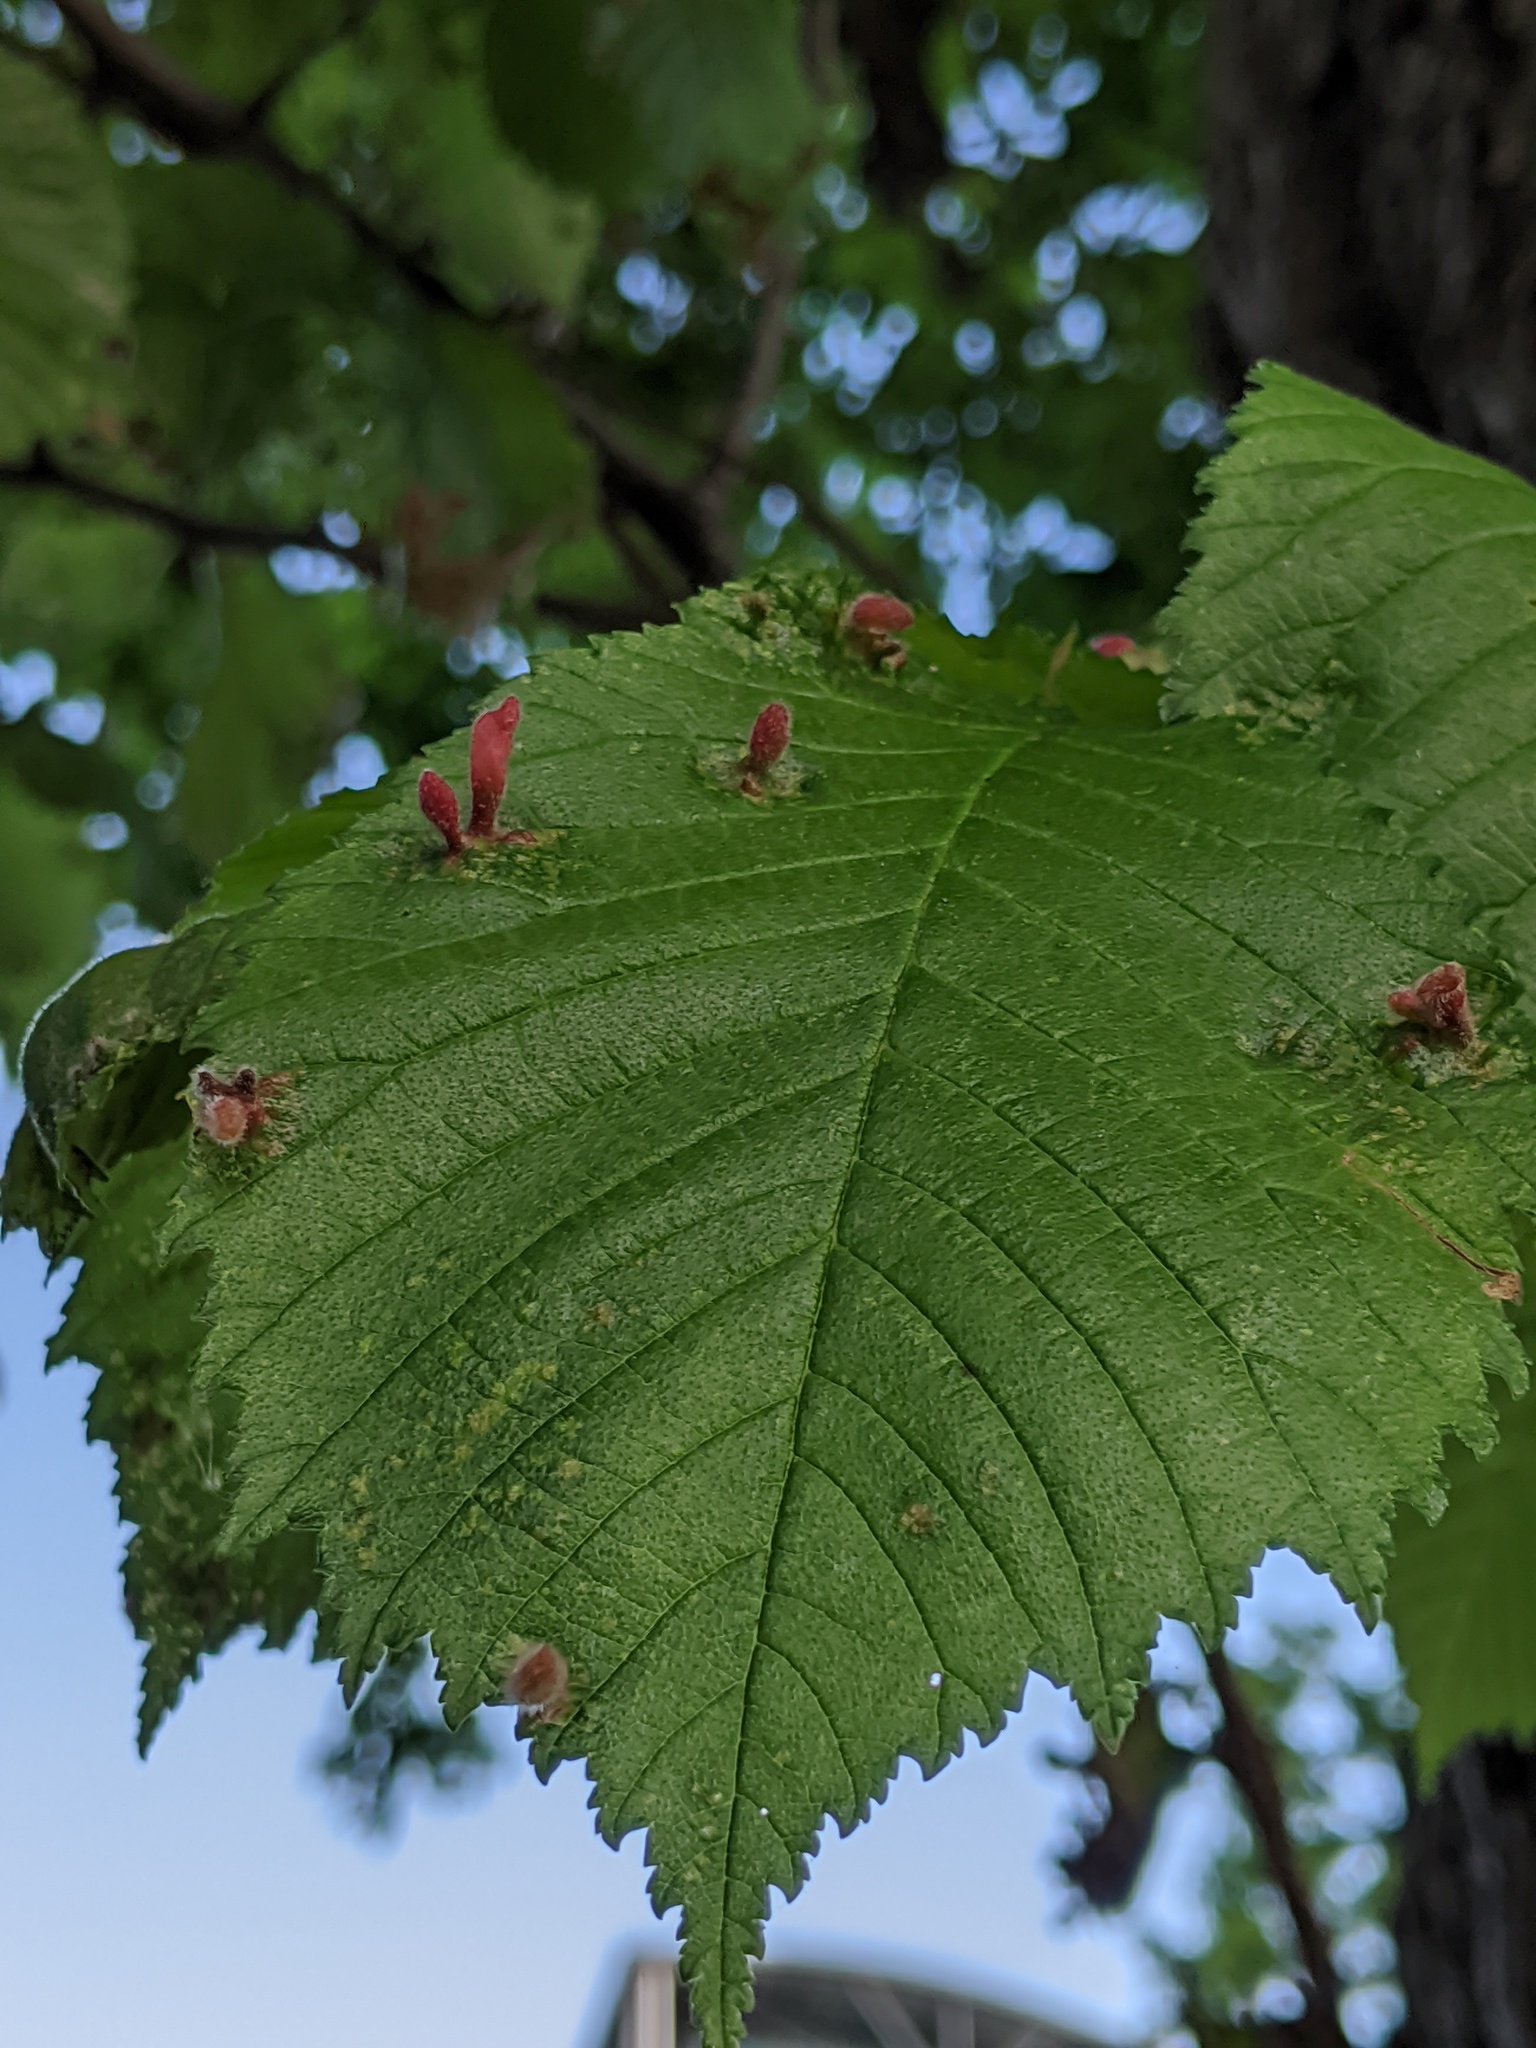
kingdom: Animalia
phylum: Arthropoda
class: Insecta
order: Hemiptera
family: Aphididae
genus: Tetraneura
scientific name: Tetraneura nigriabdominalis
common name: Aphid
